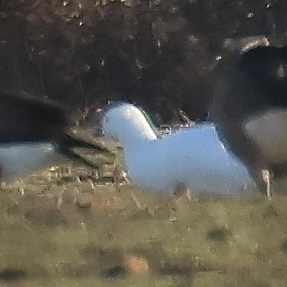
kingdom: Animalia
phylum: Chordata
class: Aves
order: Anseriformes
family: Anatidae
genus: Anser
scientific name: Anser rossii
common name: Ross's goose
